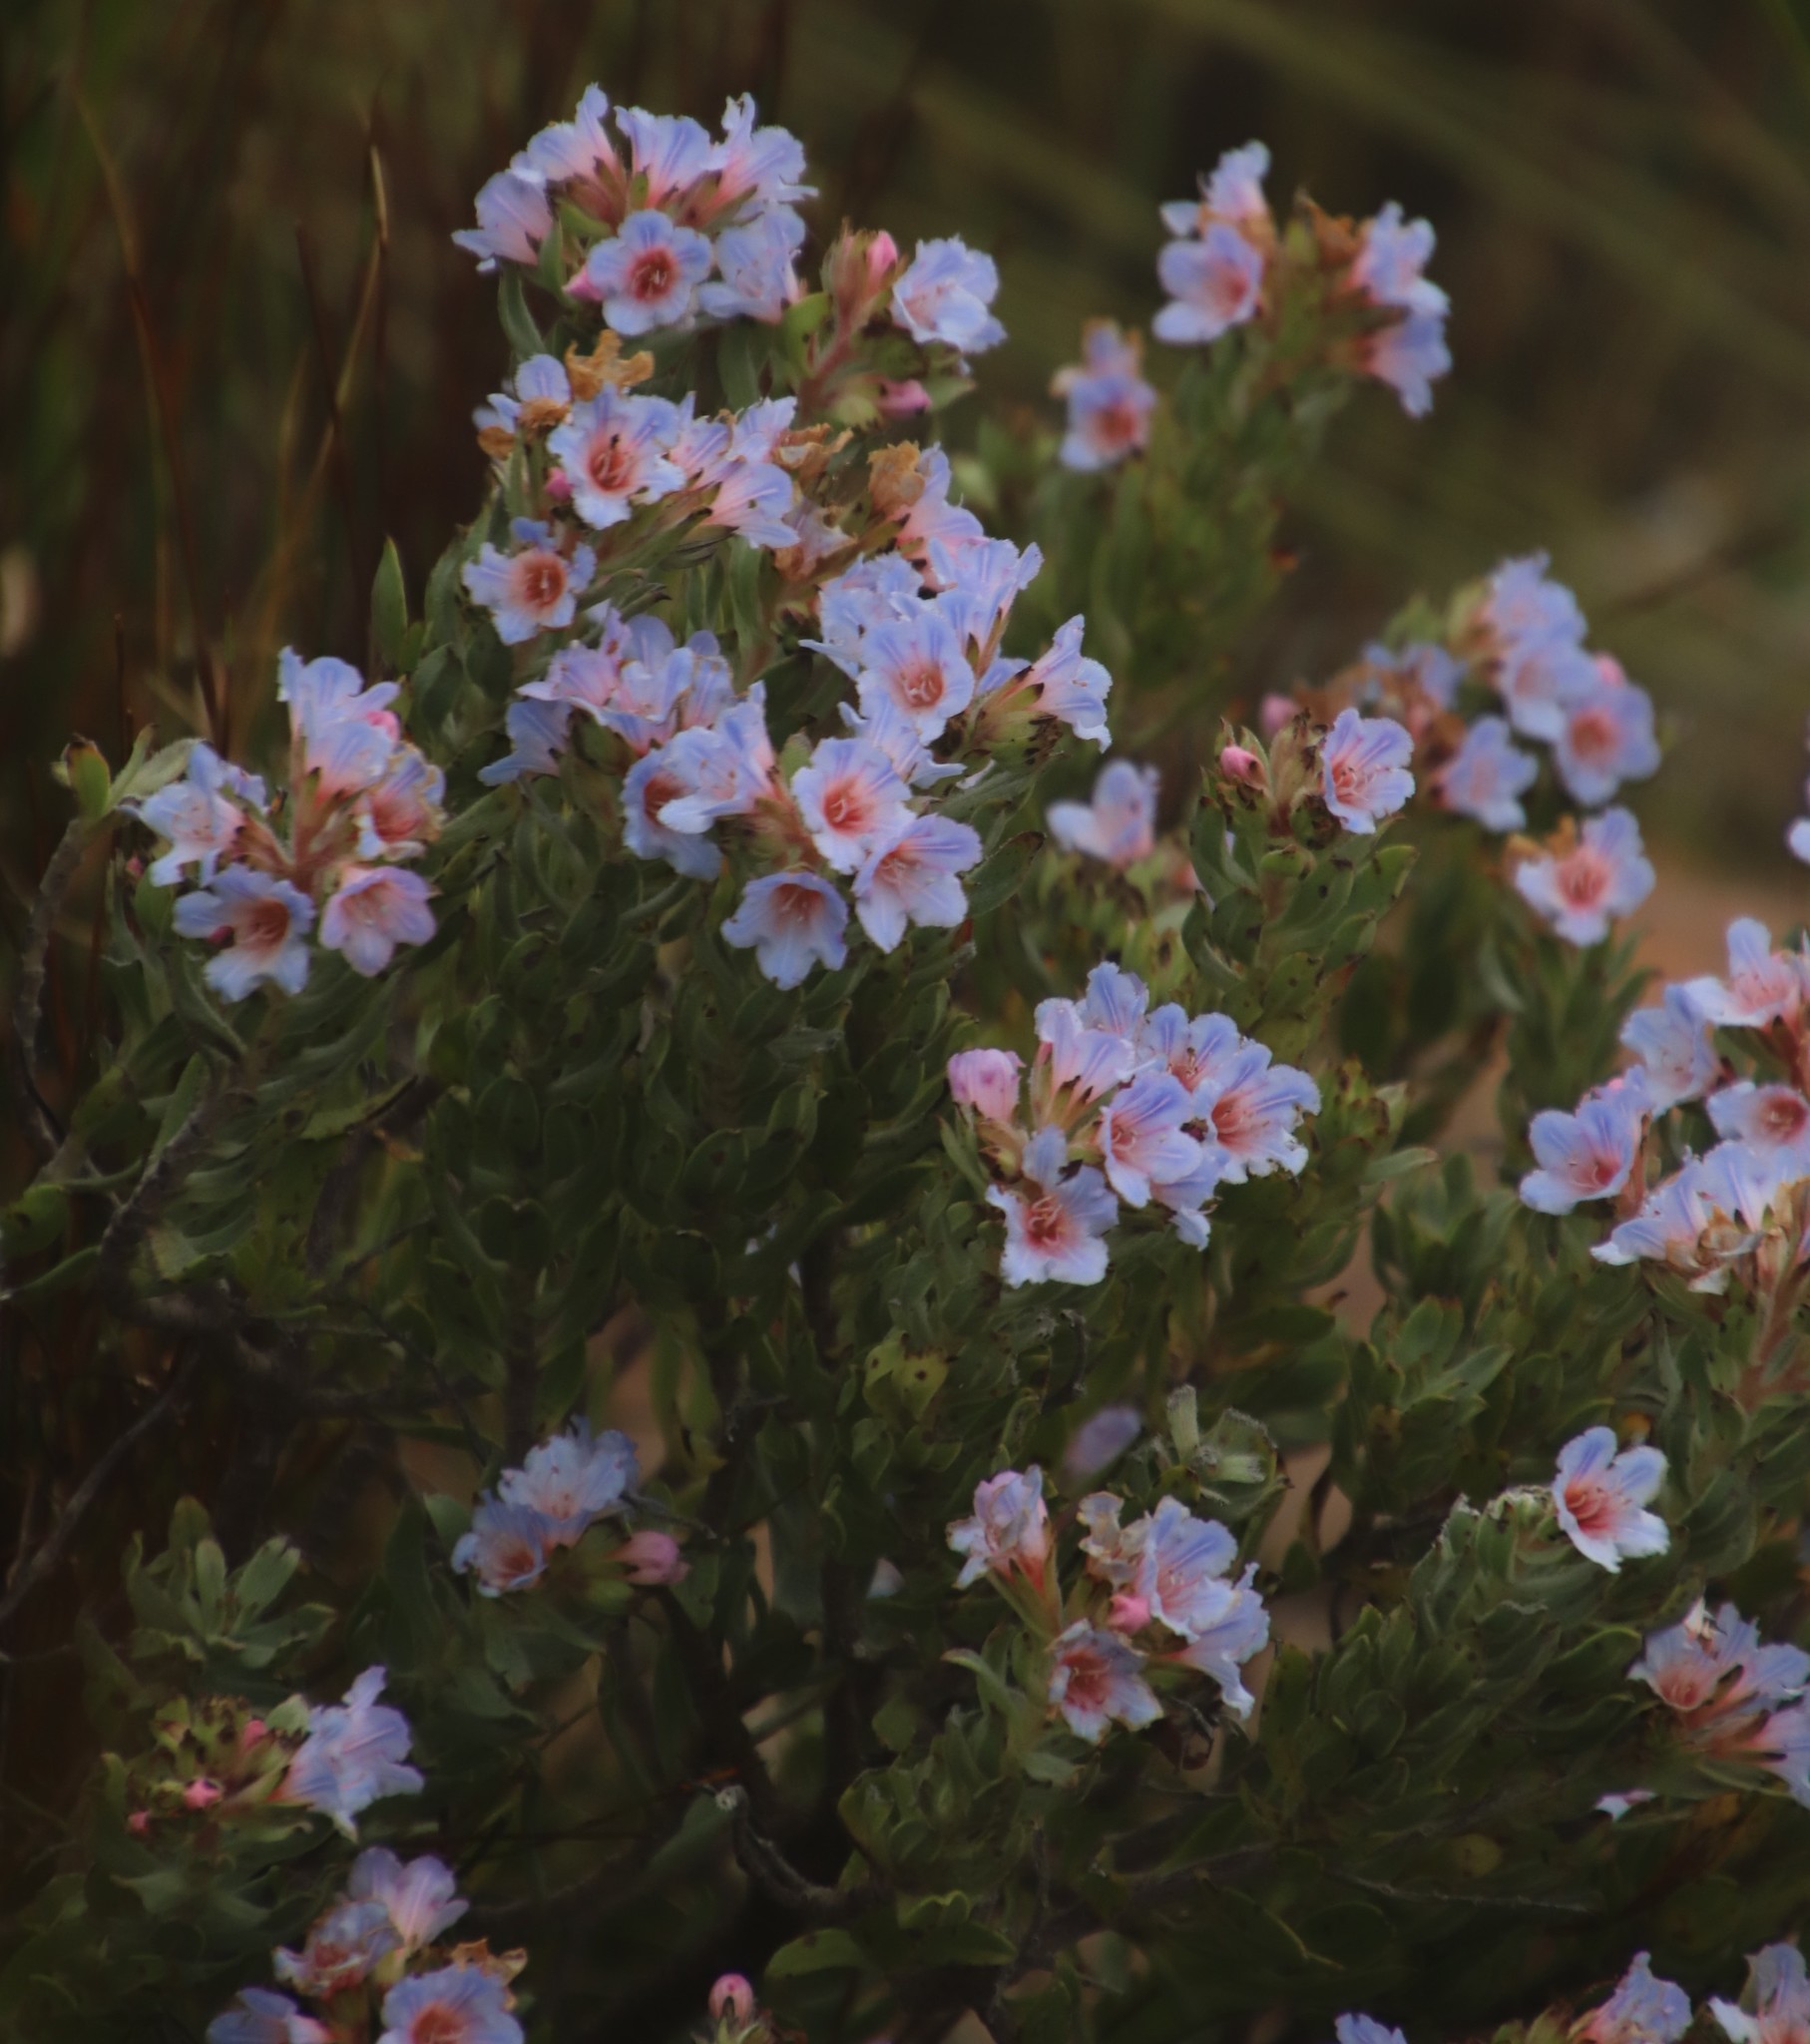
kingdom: Plantae
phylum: Tracheophyta
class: Magnoliopsida
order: Boraginales
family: Boraginaceae
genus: Lobostemon
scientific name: Lobostemon fruticosus
